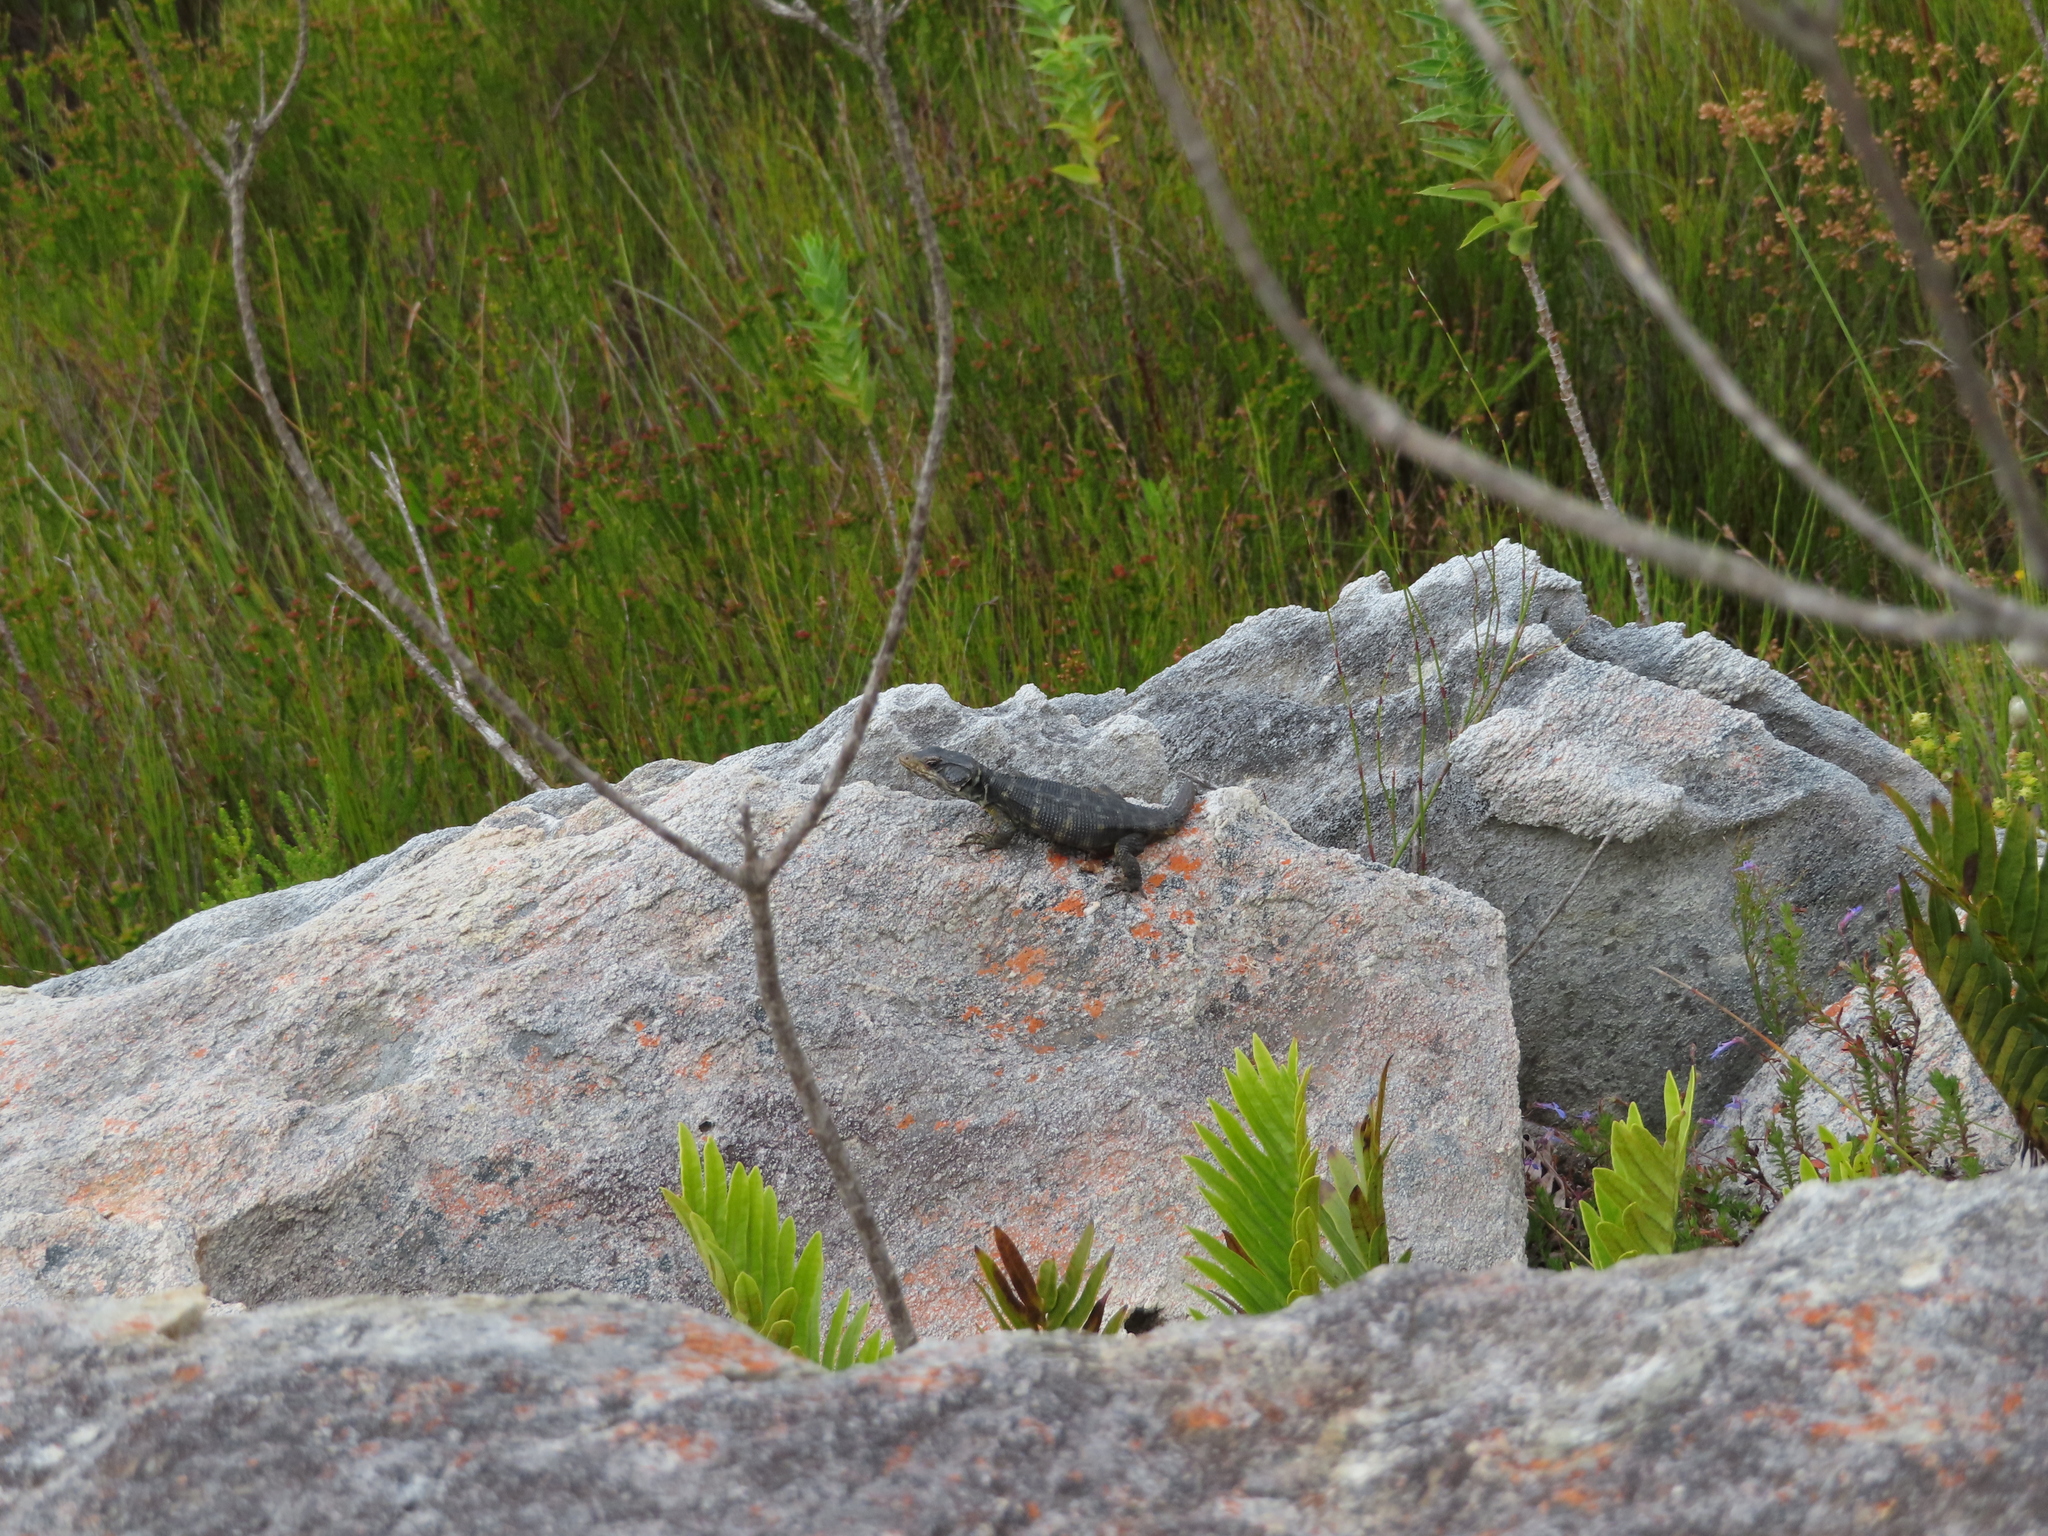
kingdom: Animalia
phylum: Chordata
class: Squamata
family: Cordylidae
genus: Pseudocordylus
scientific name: Pseudocordylus microlepidotus
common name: Cape crag lizard
